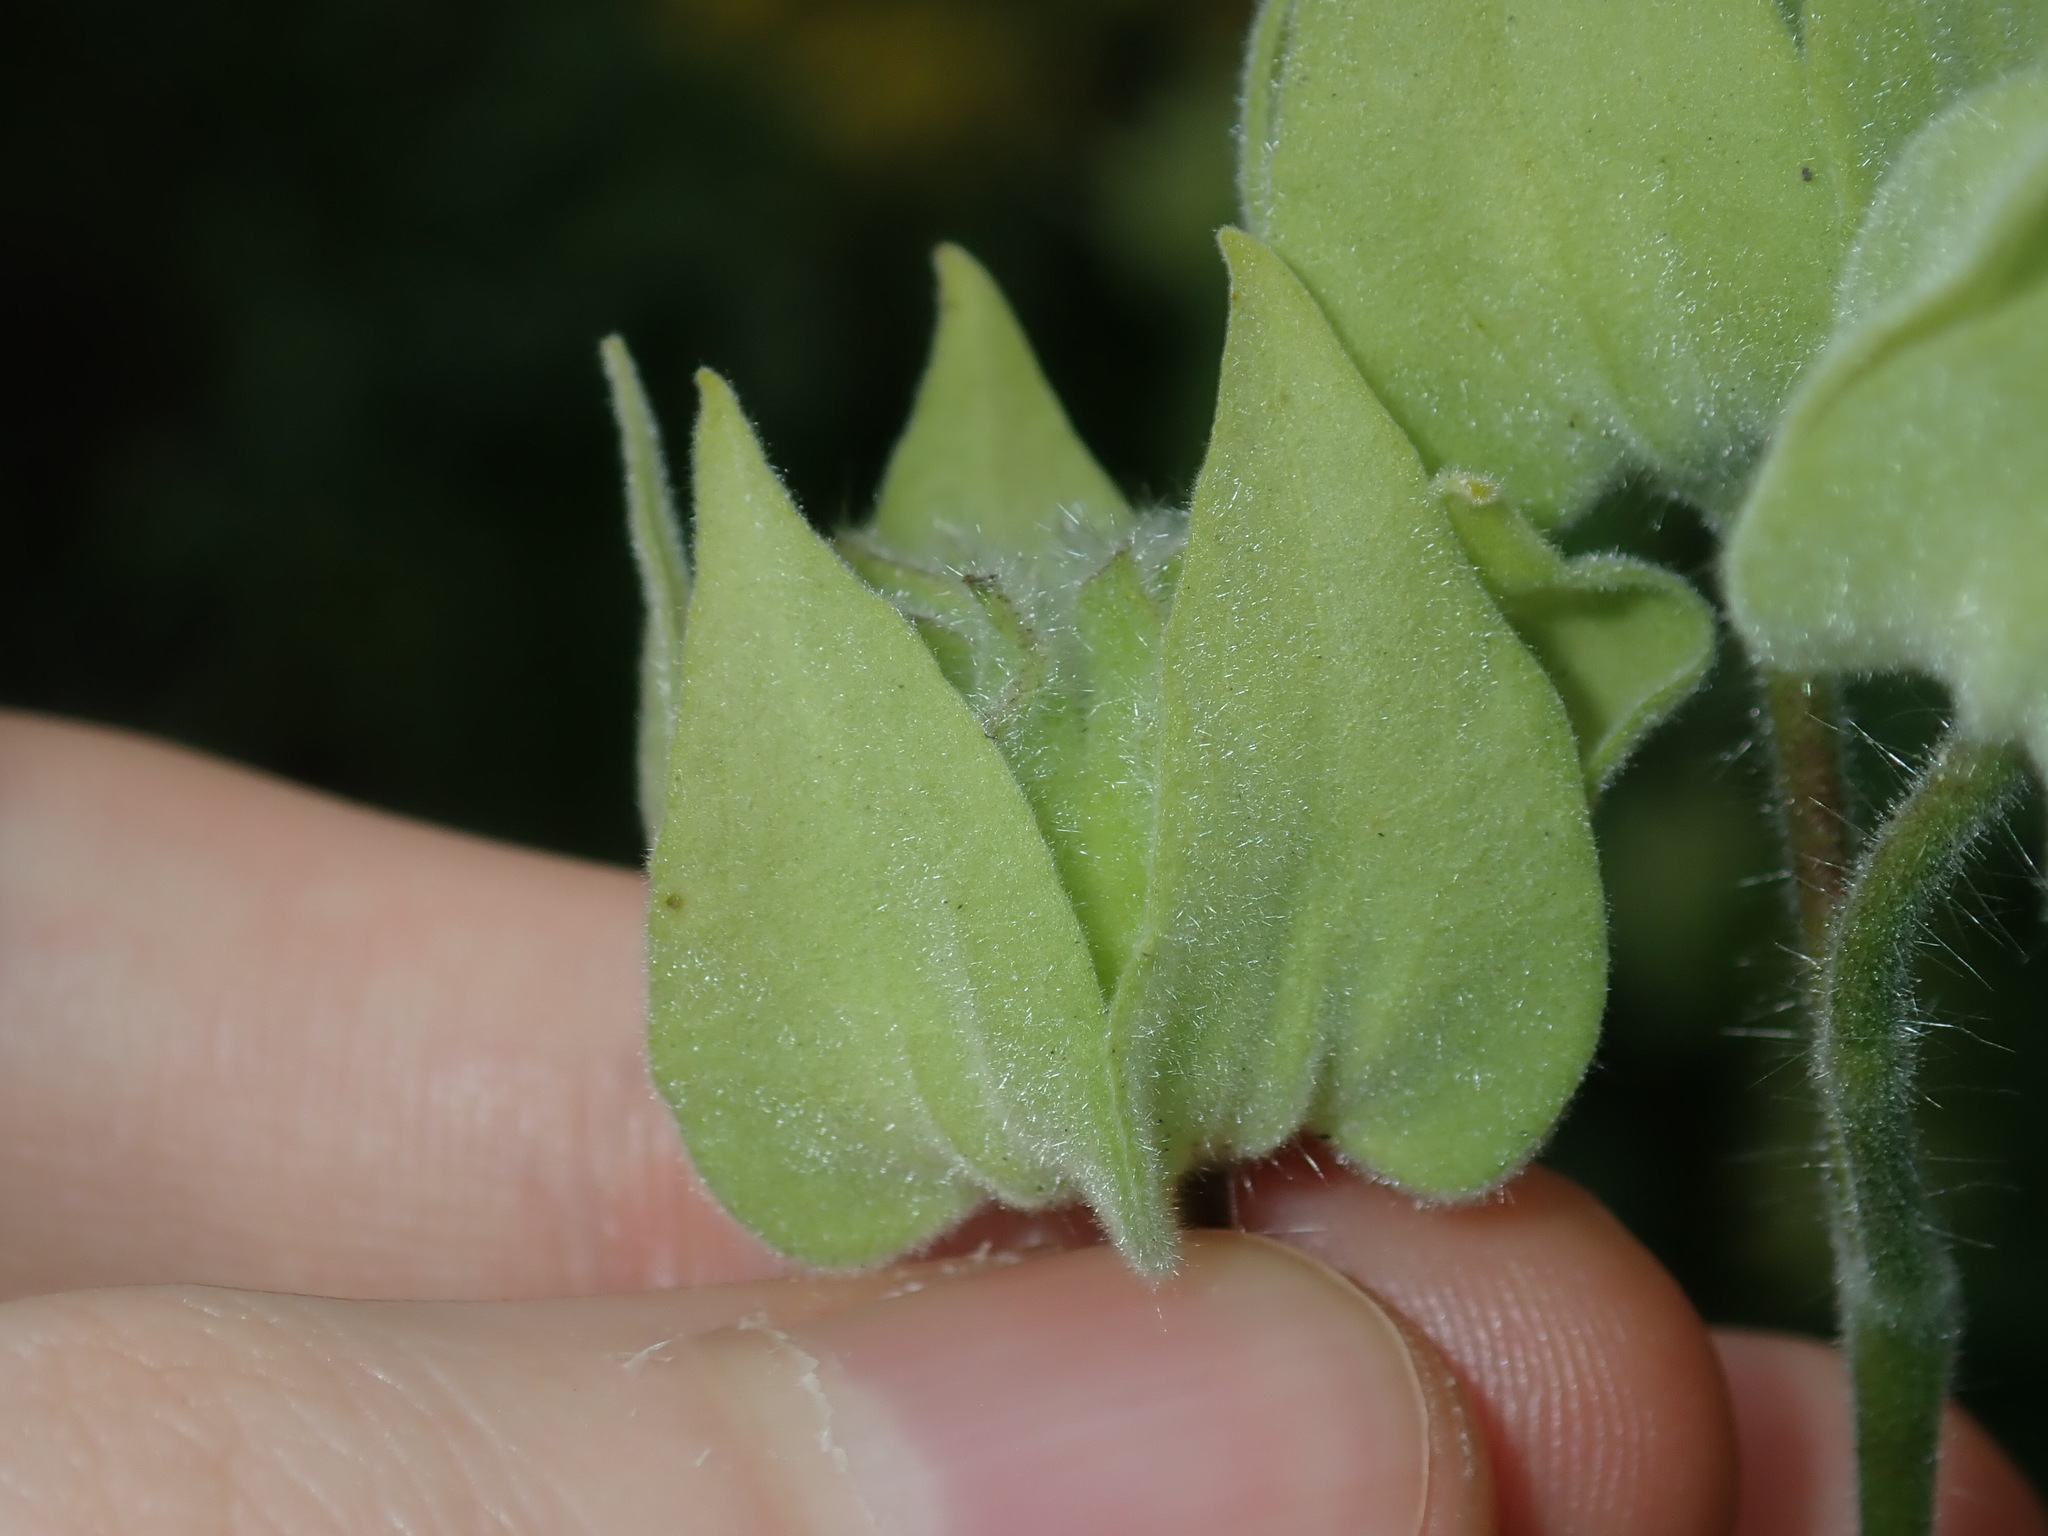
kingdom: Plantae
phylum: Tracheophyta
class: Magnoliopsida
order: Malvales
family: Malvaceae
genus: Abutilon
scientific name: Abutilon grandifolium
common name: Hairy abutilon
